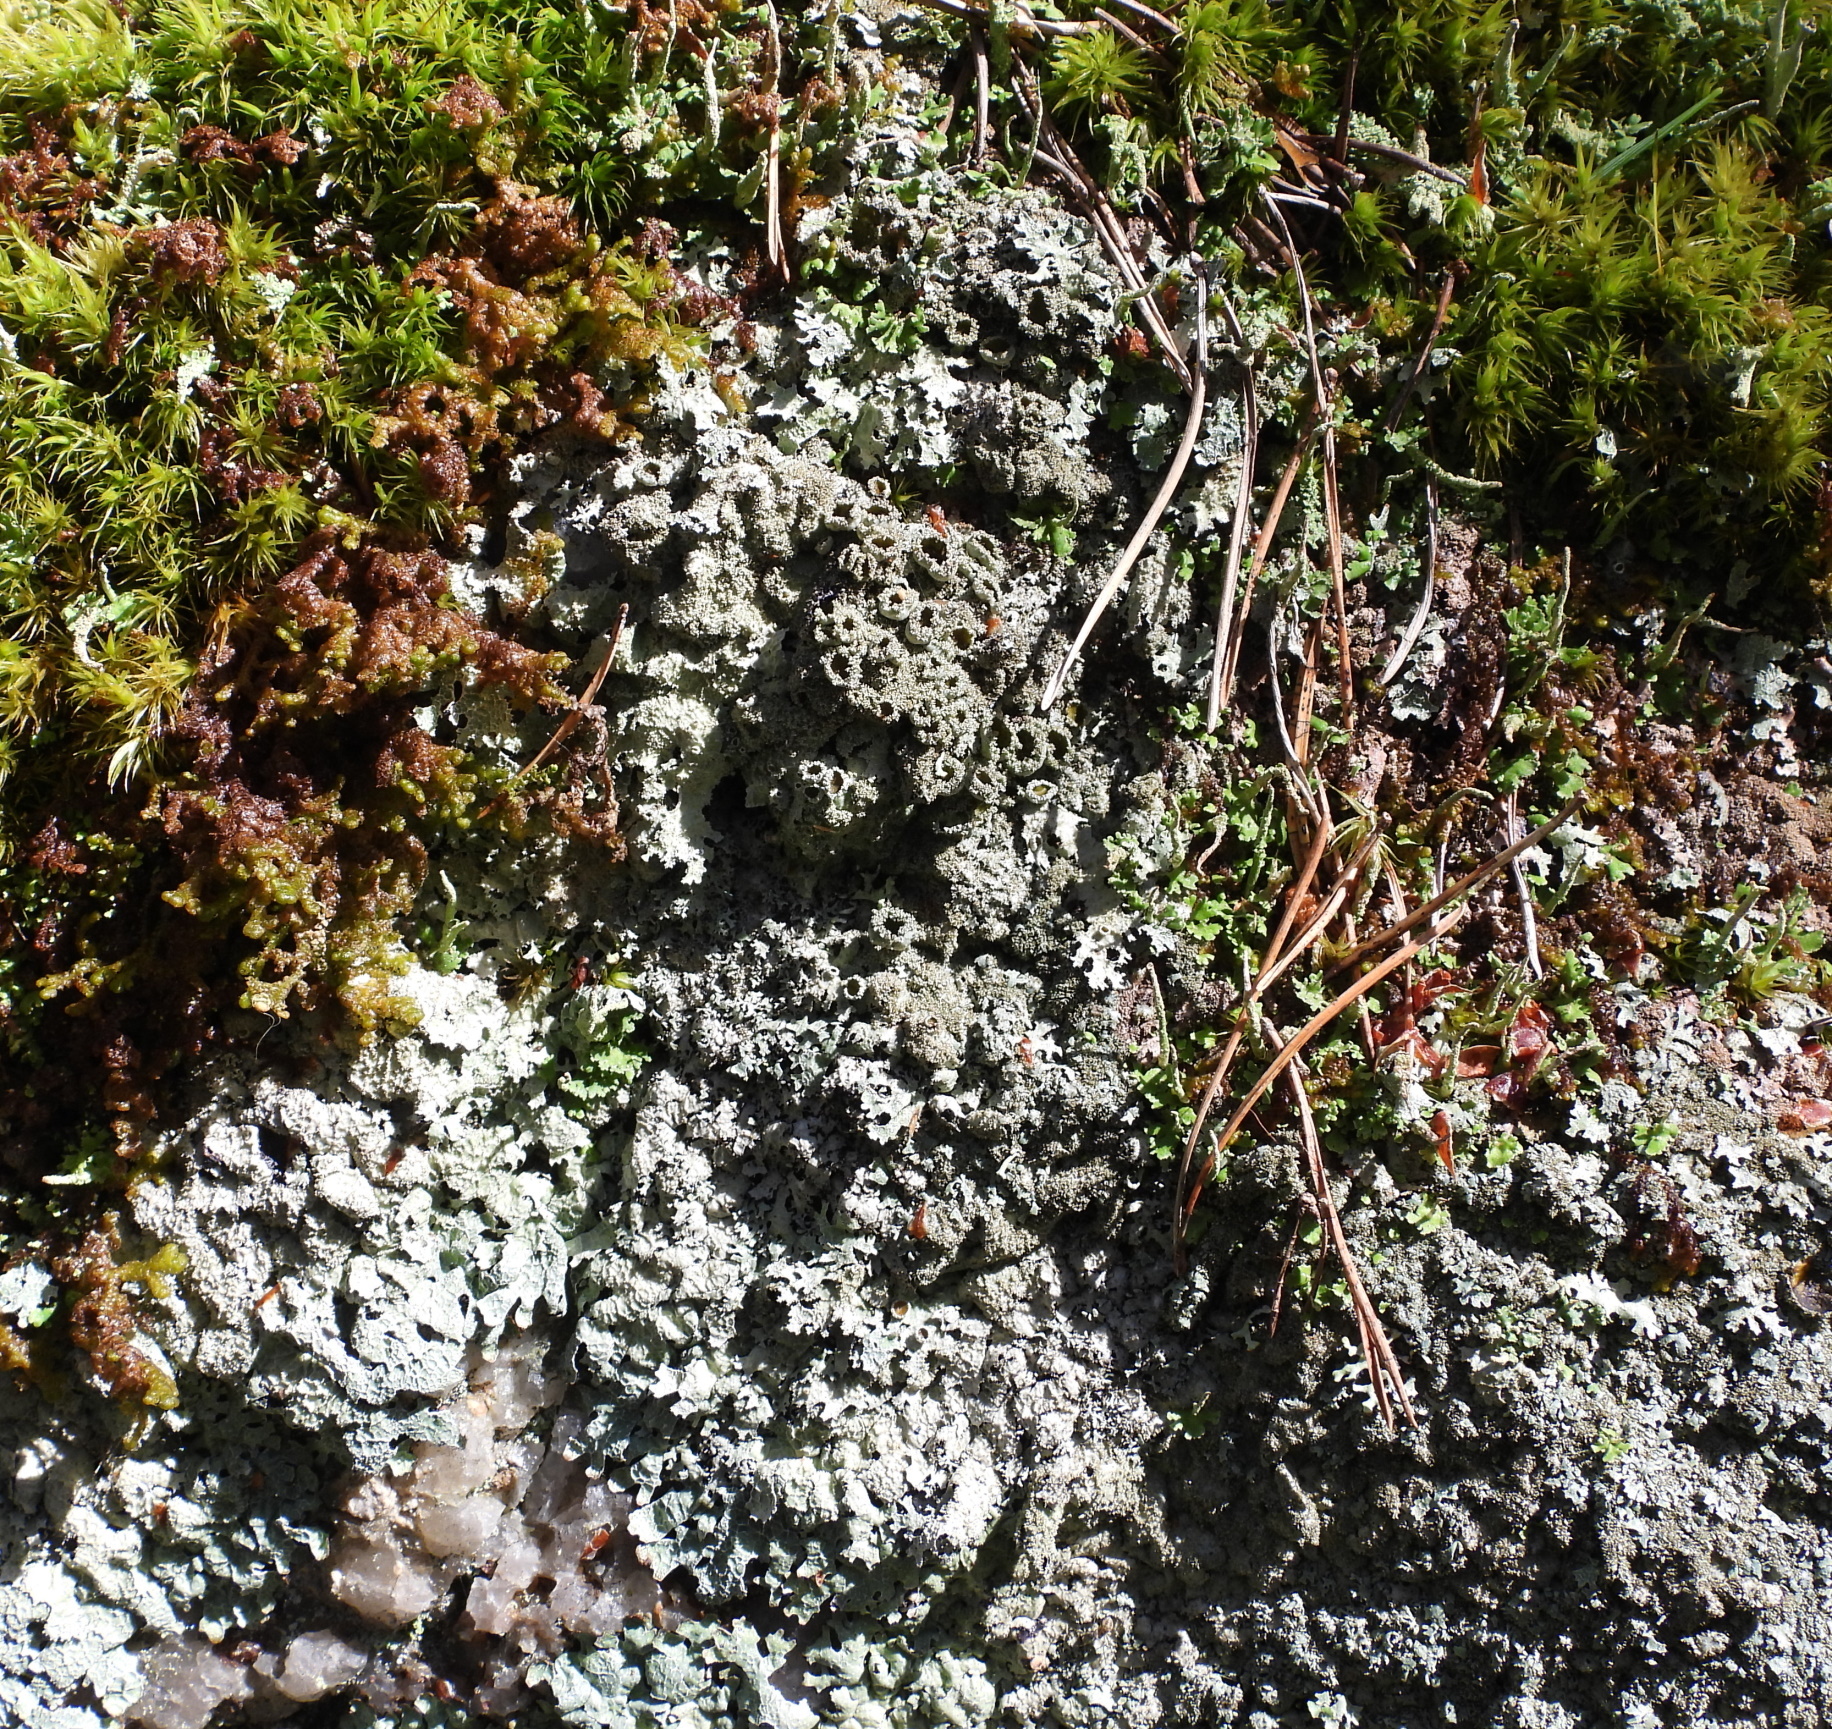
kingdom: Fungi
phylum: Ascomycota
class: Lecanoromycetes
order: Lecanorales
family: Parmeliaceae
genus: Parmelia
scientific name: Parmelia saxatilis
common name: Salted shield lichen
